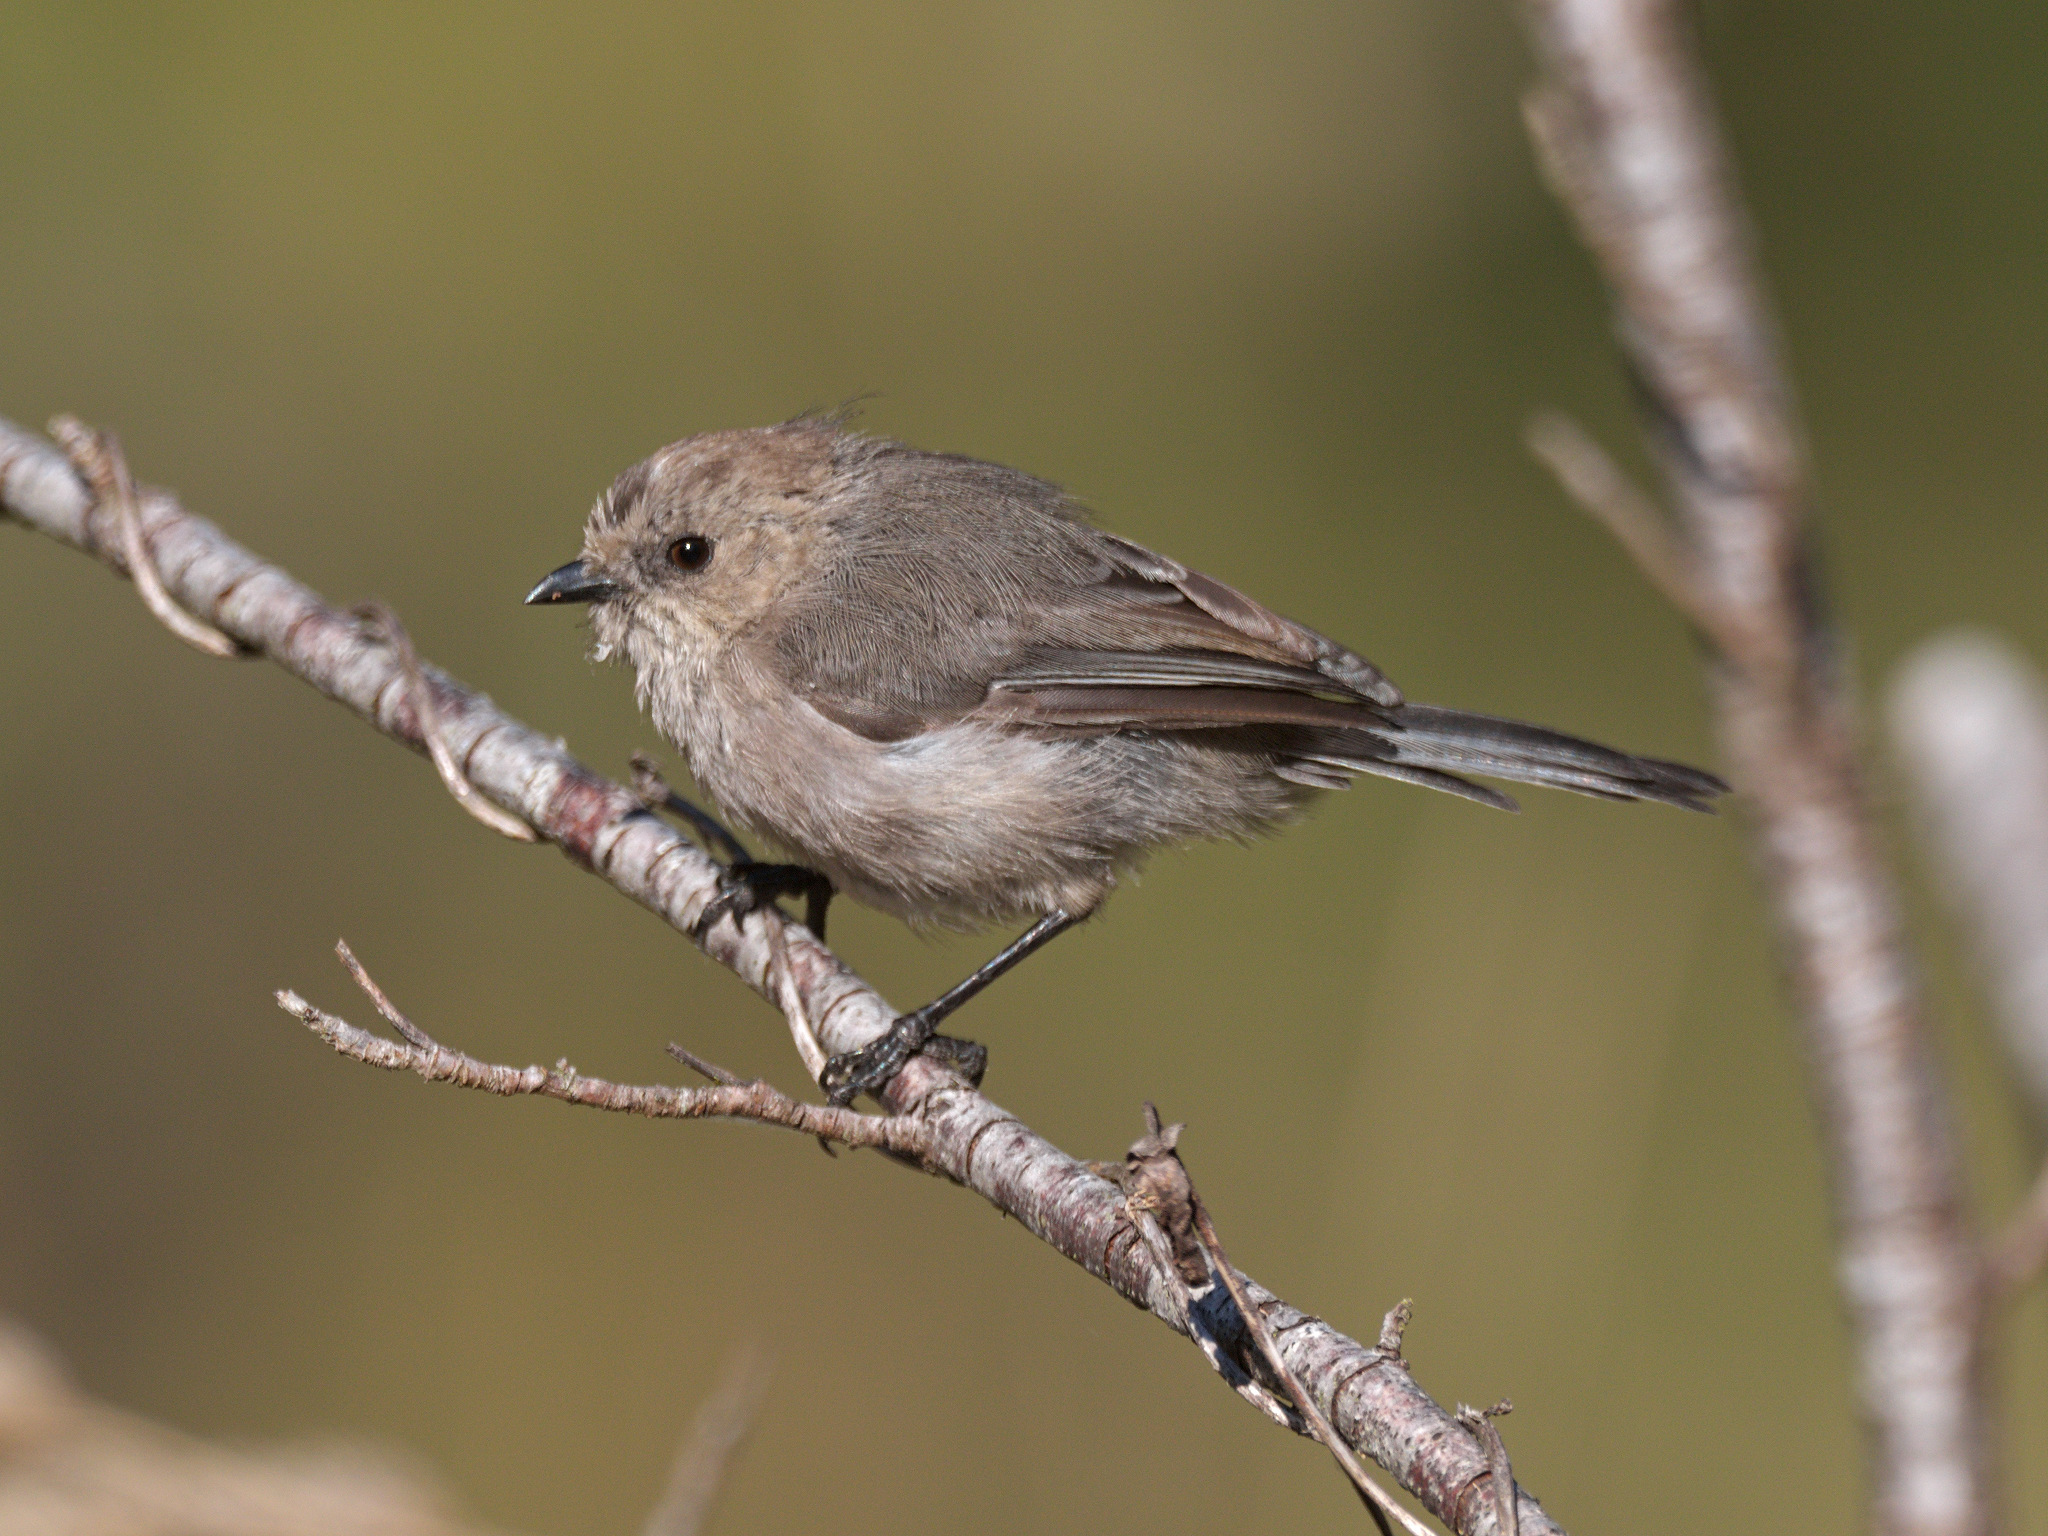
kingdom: Animalia
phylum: Chordata
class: Aves
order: Passeriformes
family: Aegithalidae
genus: Psaltriparus
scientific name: Psaltriparus minimus
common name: American bushtit
